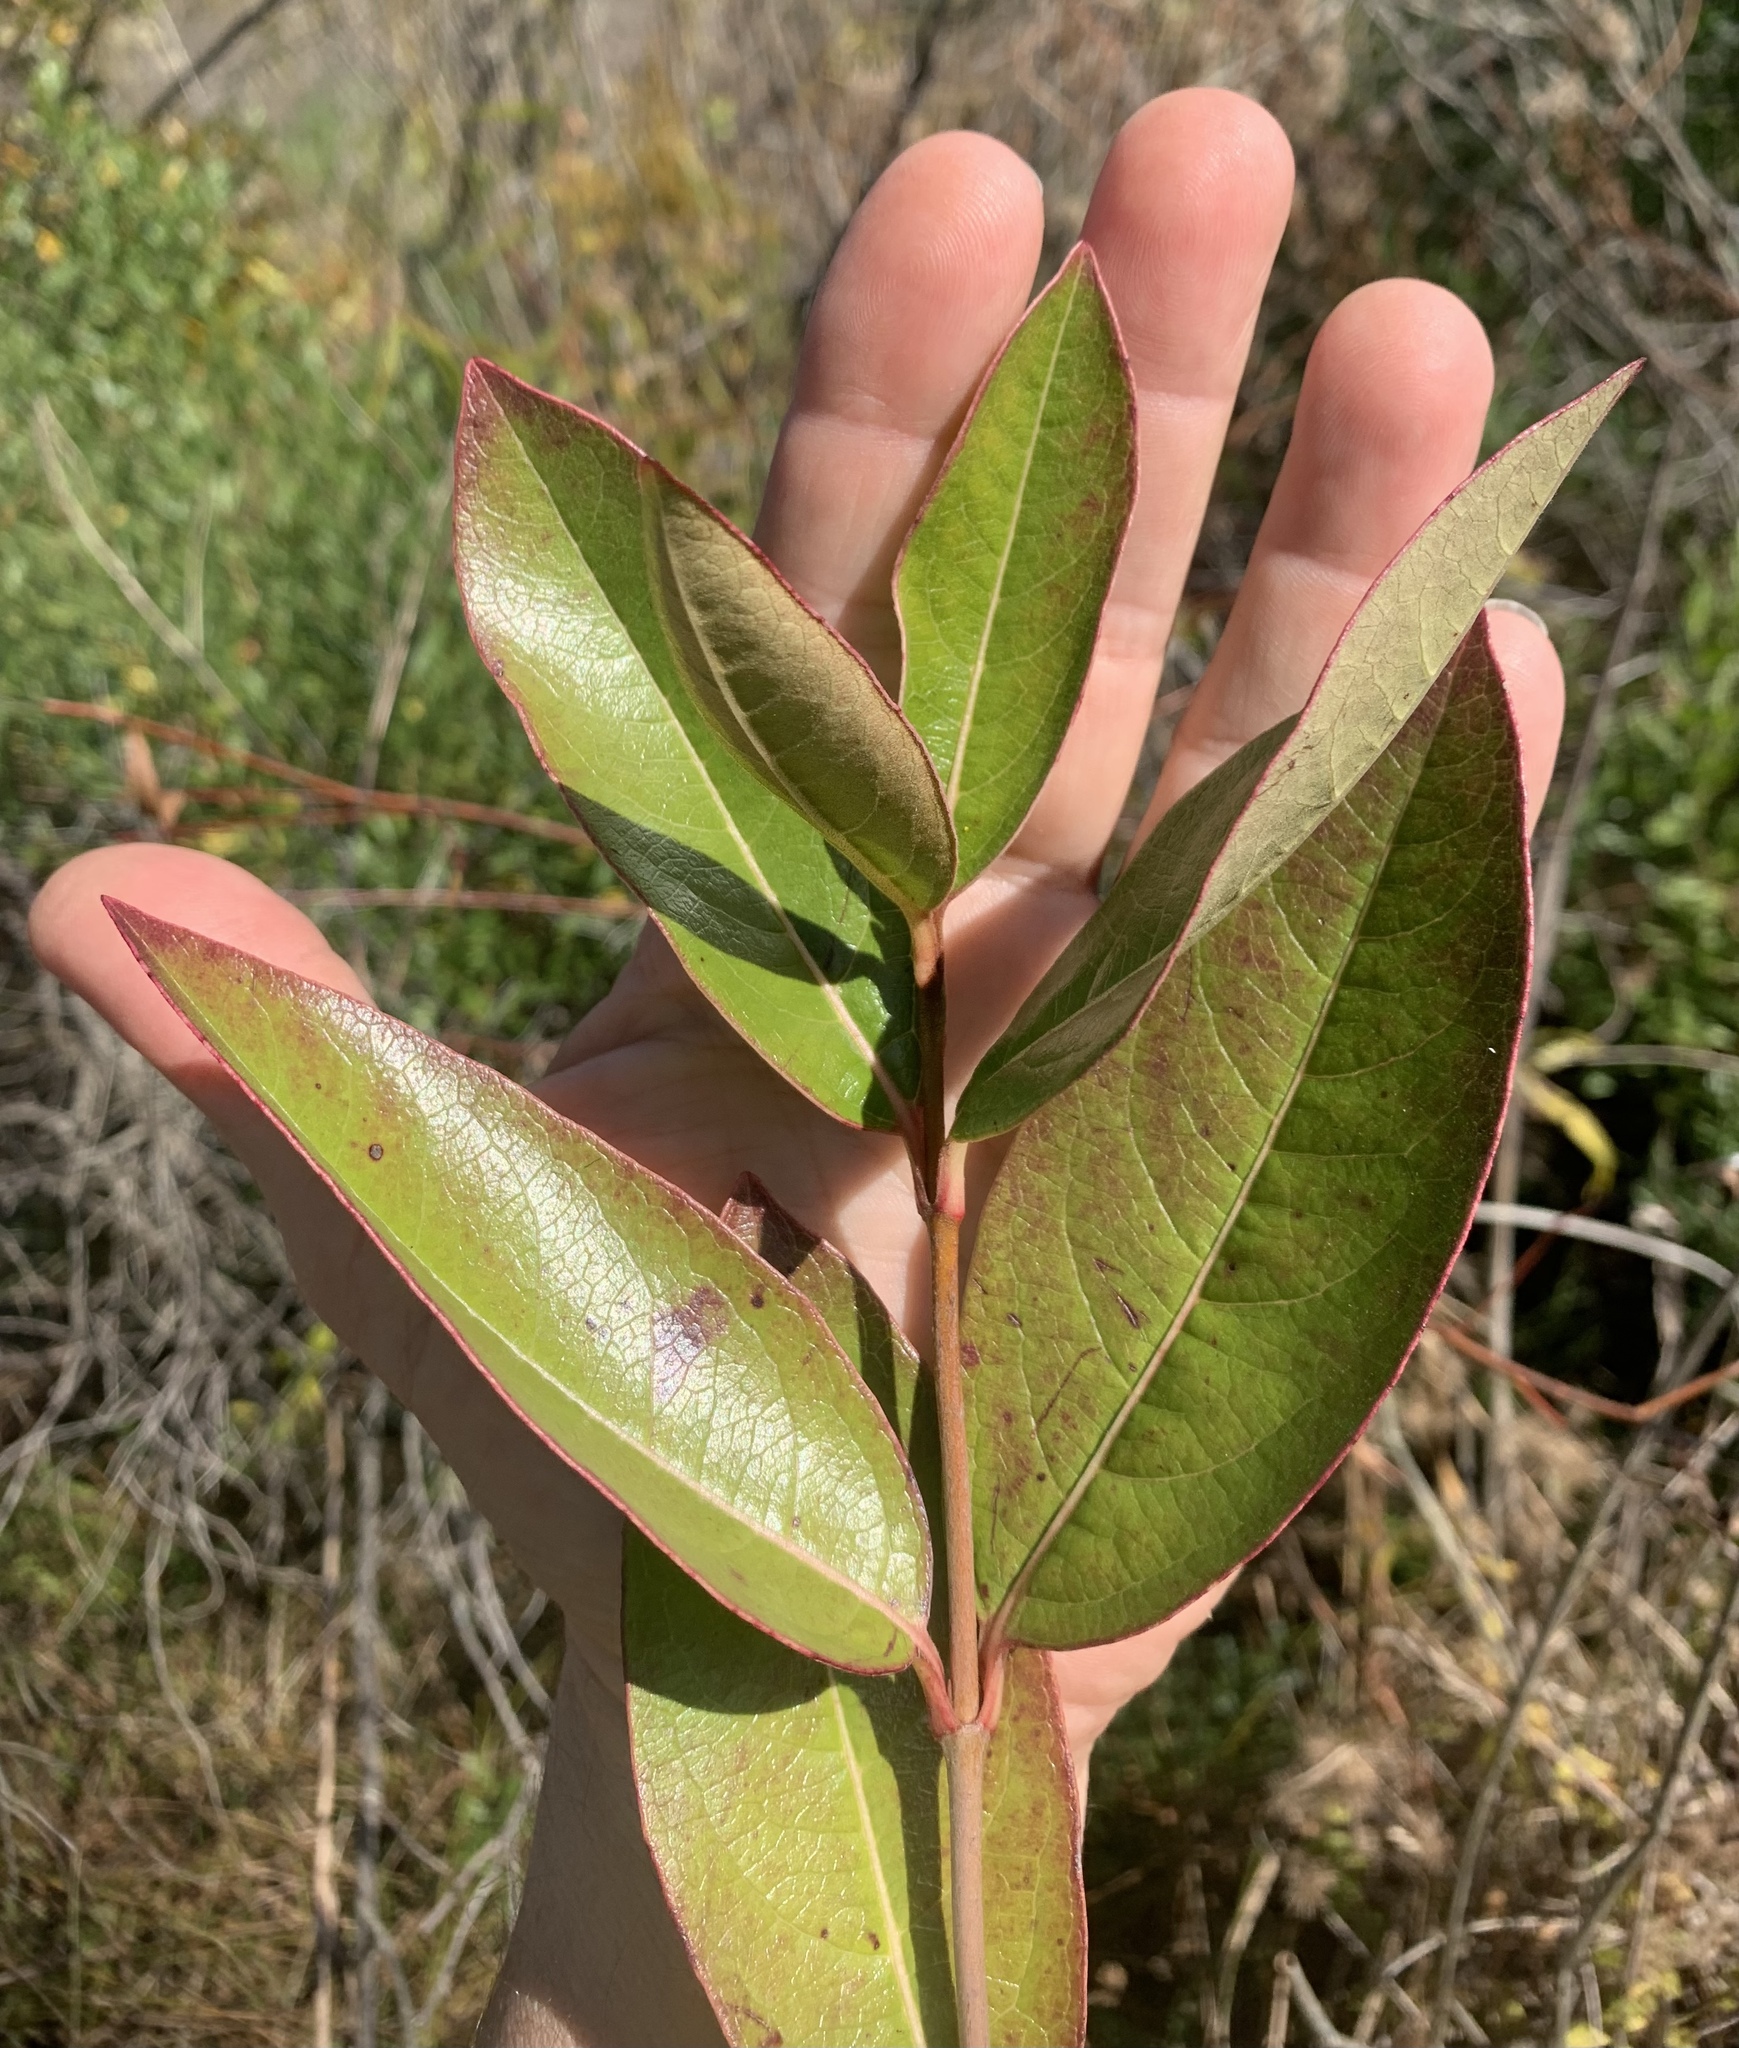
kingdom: Plantae
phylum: Tracheophyta
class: Magnoliopsida
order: Dipsacales
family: Viburnaceae
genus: Viburnum
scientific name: Viburnum nudum
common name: Possum haw
